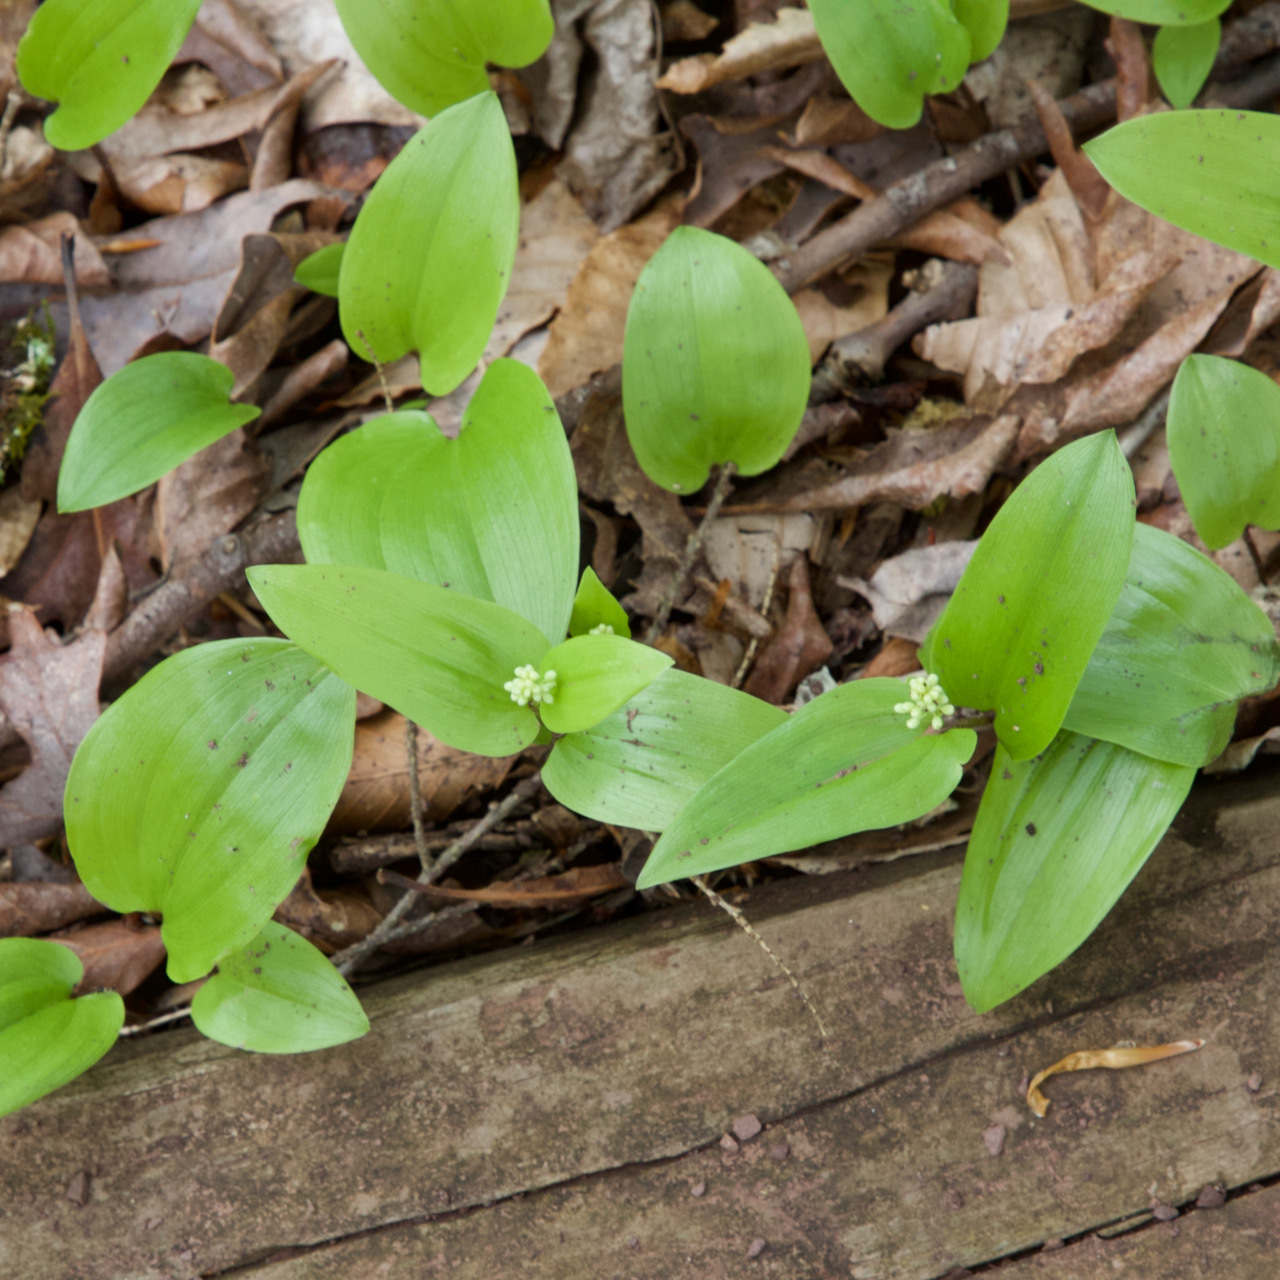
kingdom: Plantae
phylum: Tracheophyta
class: Liliopsida
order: Asparagales
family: Asparagaceae
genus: Maianthemum
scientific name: Maianthemum canadense
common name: False lily-of-the-valley
